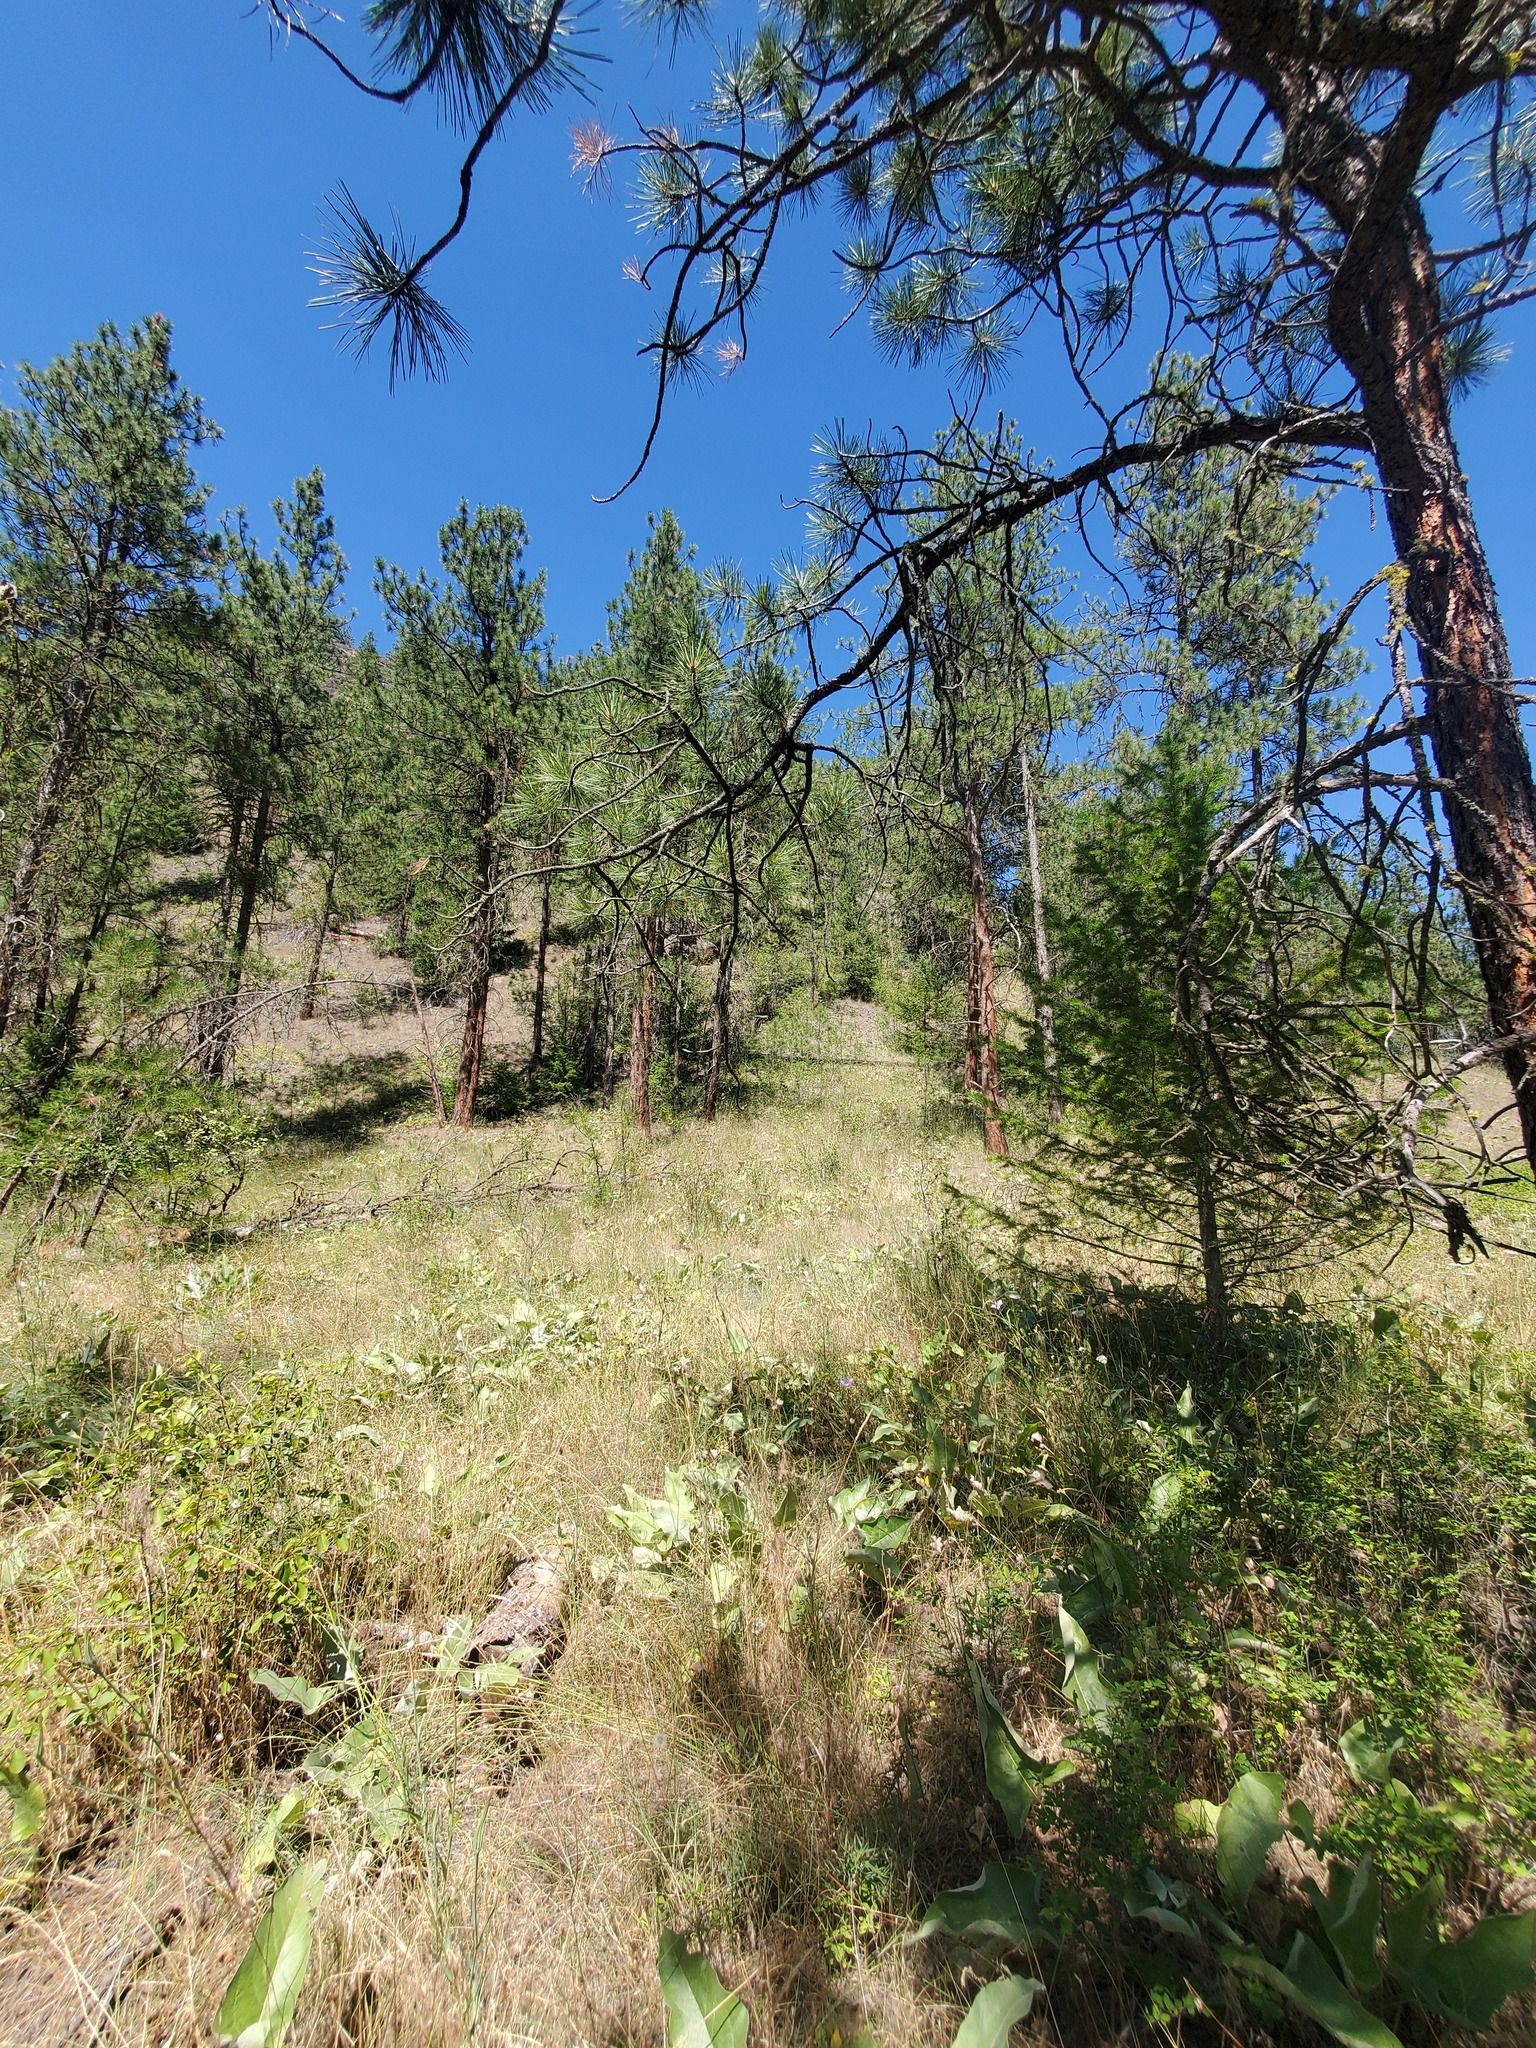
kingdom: Plantae
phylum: Tracheophyta
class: Magnoliopsida
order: Asterales
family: Asteraceae
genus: Wyethia
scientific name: Wyethia sagittata
